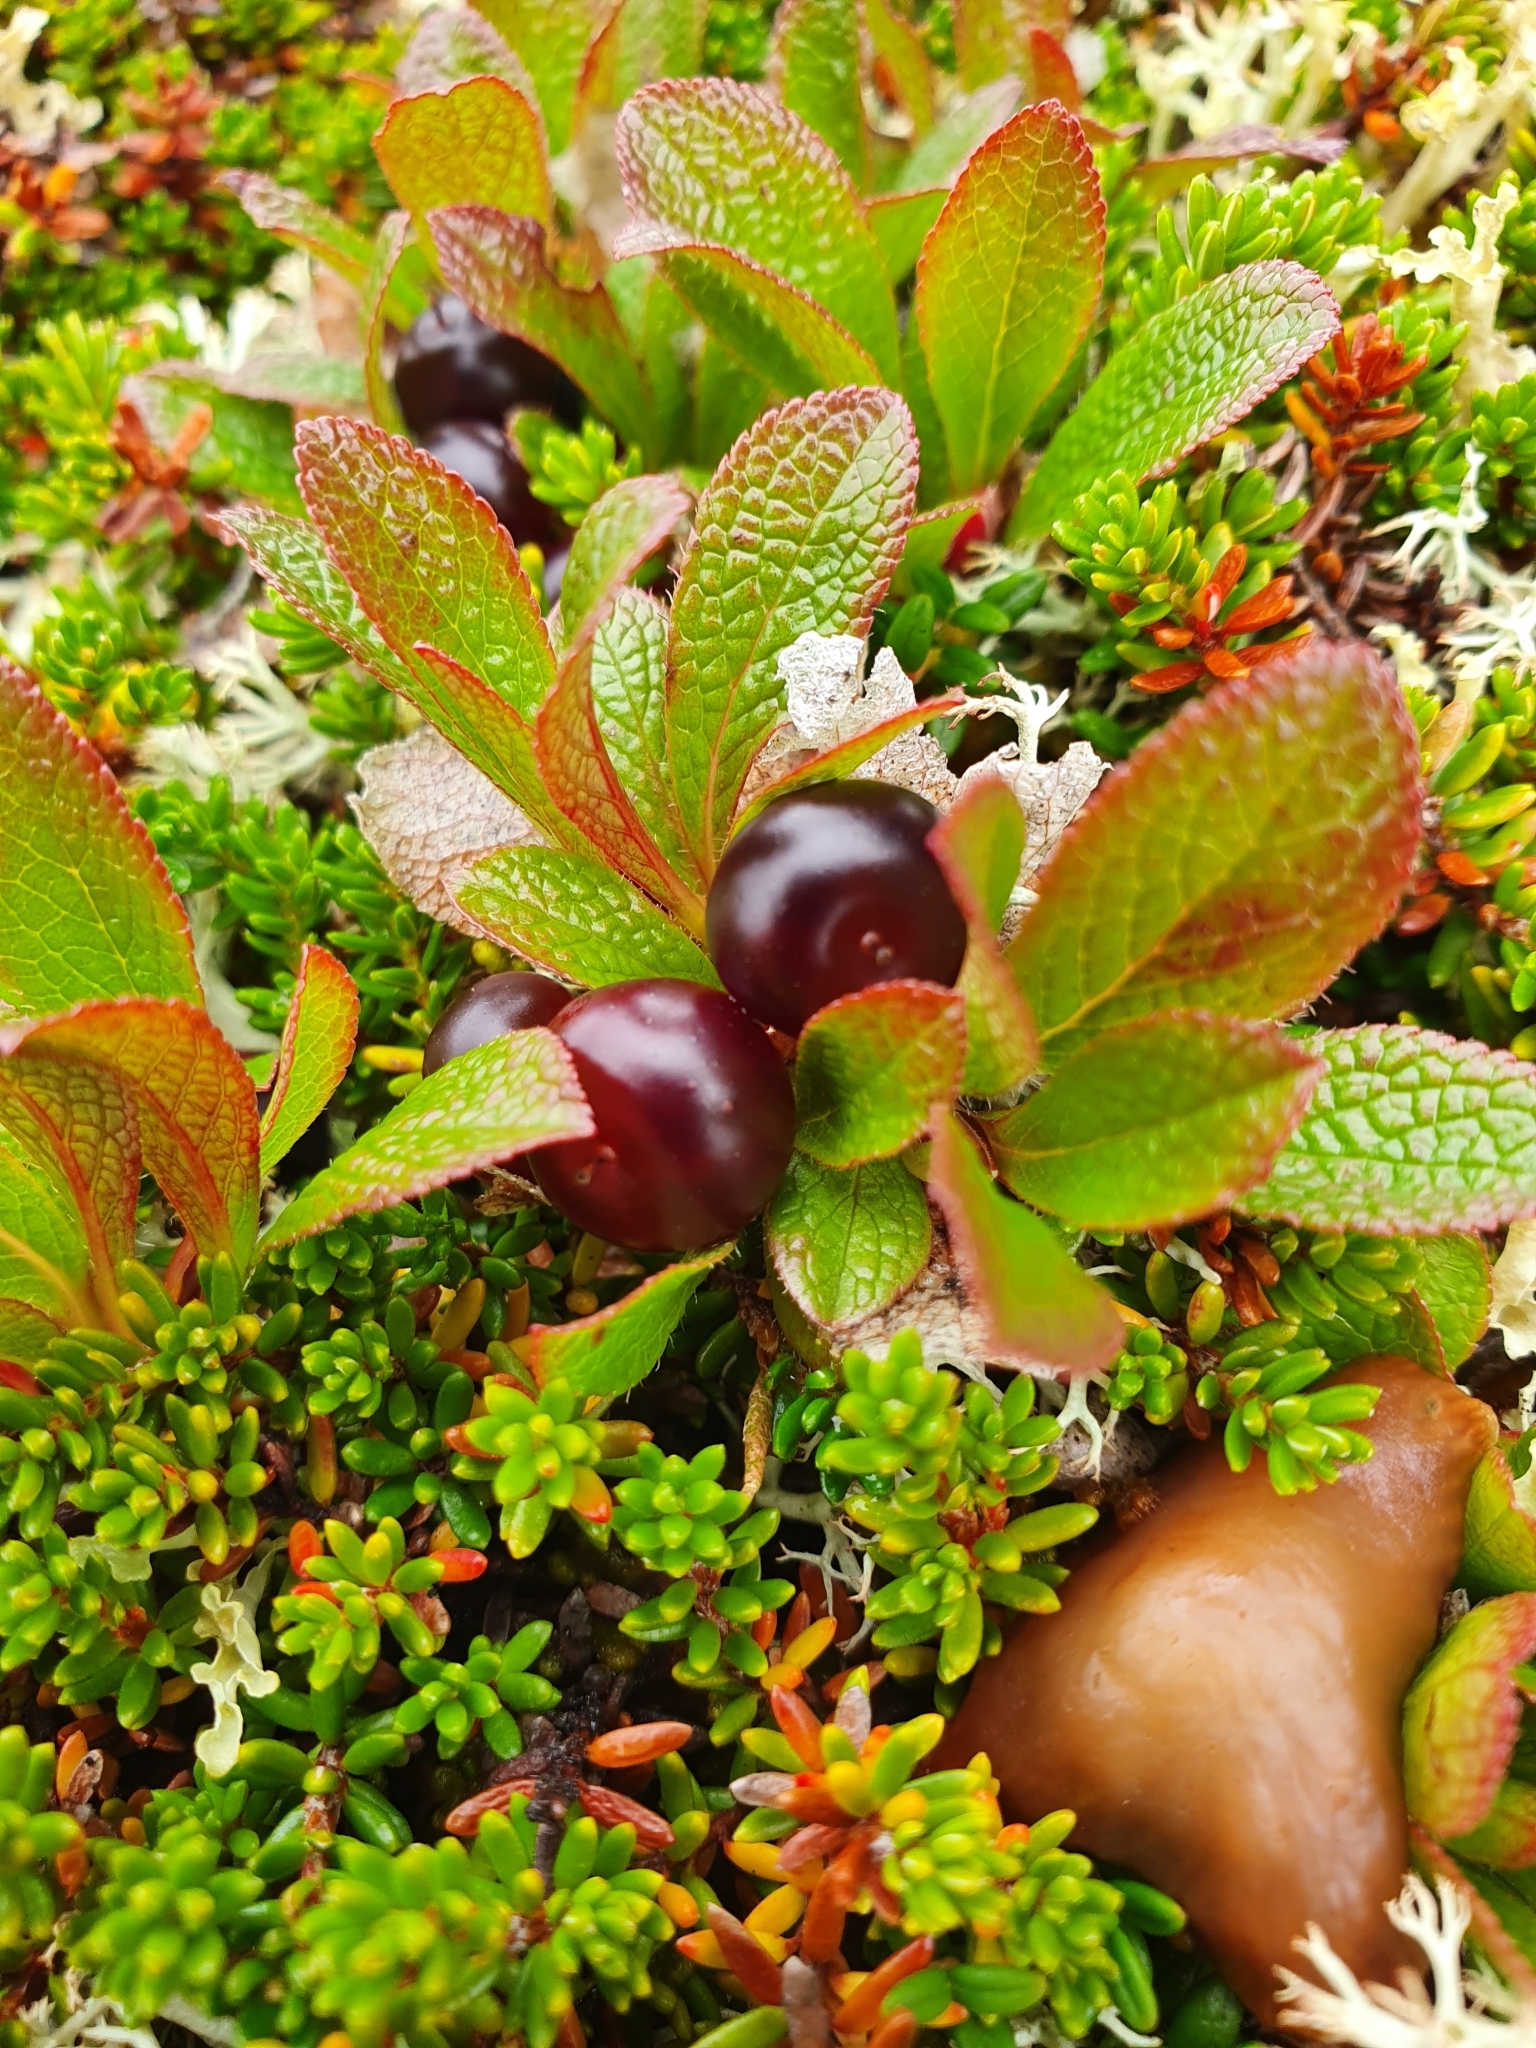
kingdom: Plantae
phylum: Tracheophyta
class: Magnoliopsida
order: Ericales
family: Ericaceae
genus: Arctostaphylos
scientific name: Arctostaphylos alpinus
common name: Alpine bearberry
